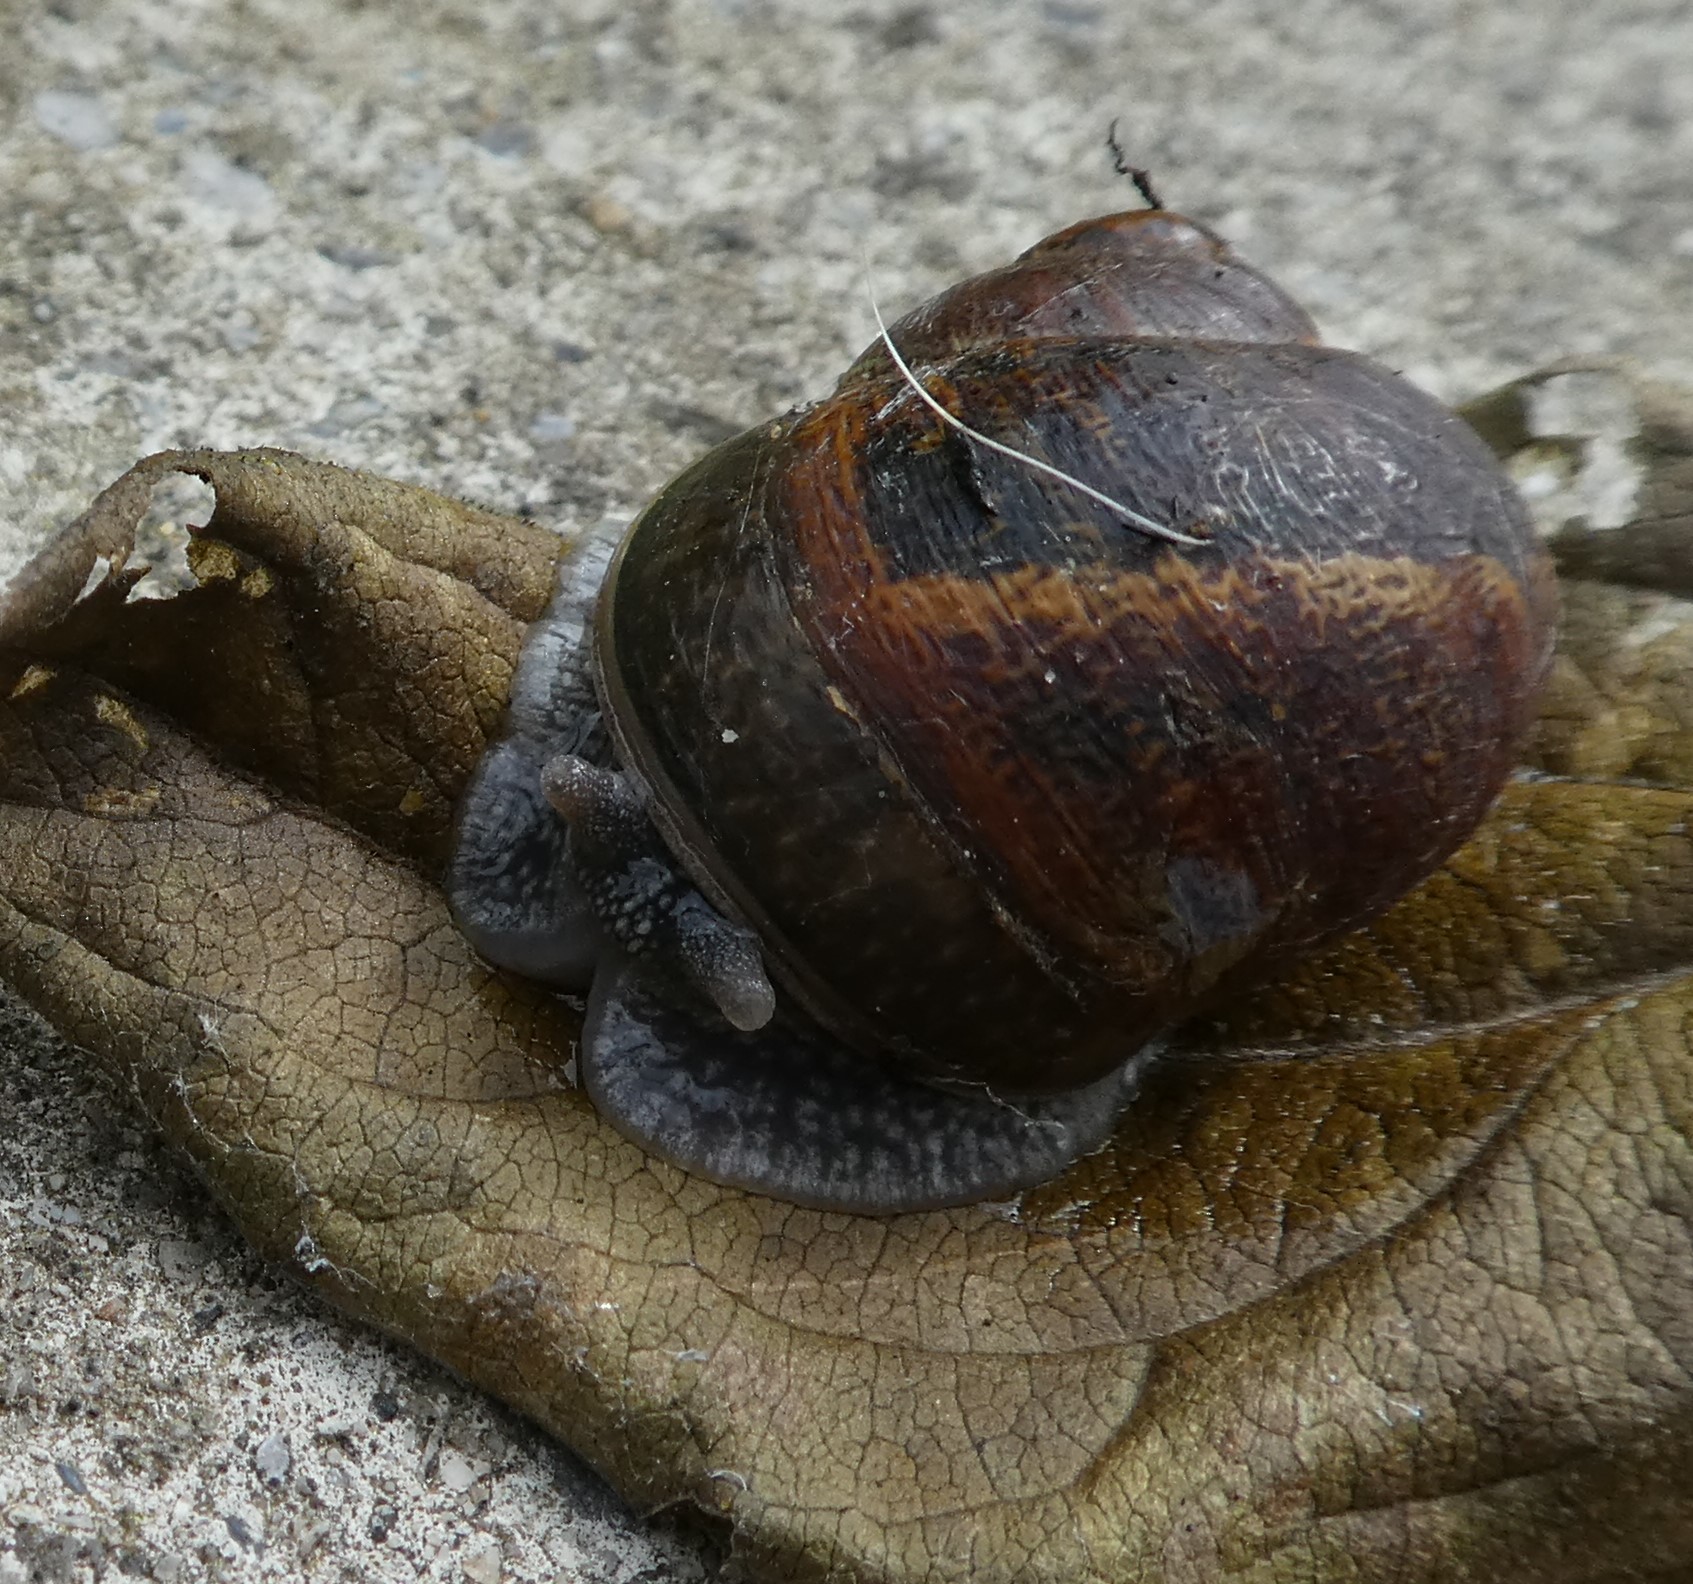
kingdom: Animalia
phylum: Mollusca
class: Gastropoda
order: Stylommatophora
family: Helicidae
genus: Cornu
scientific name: Cornu aspersum
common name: Brown garden snail
